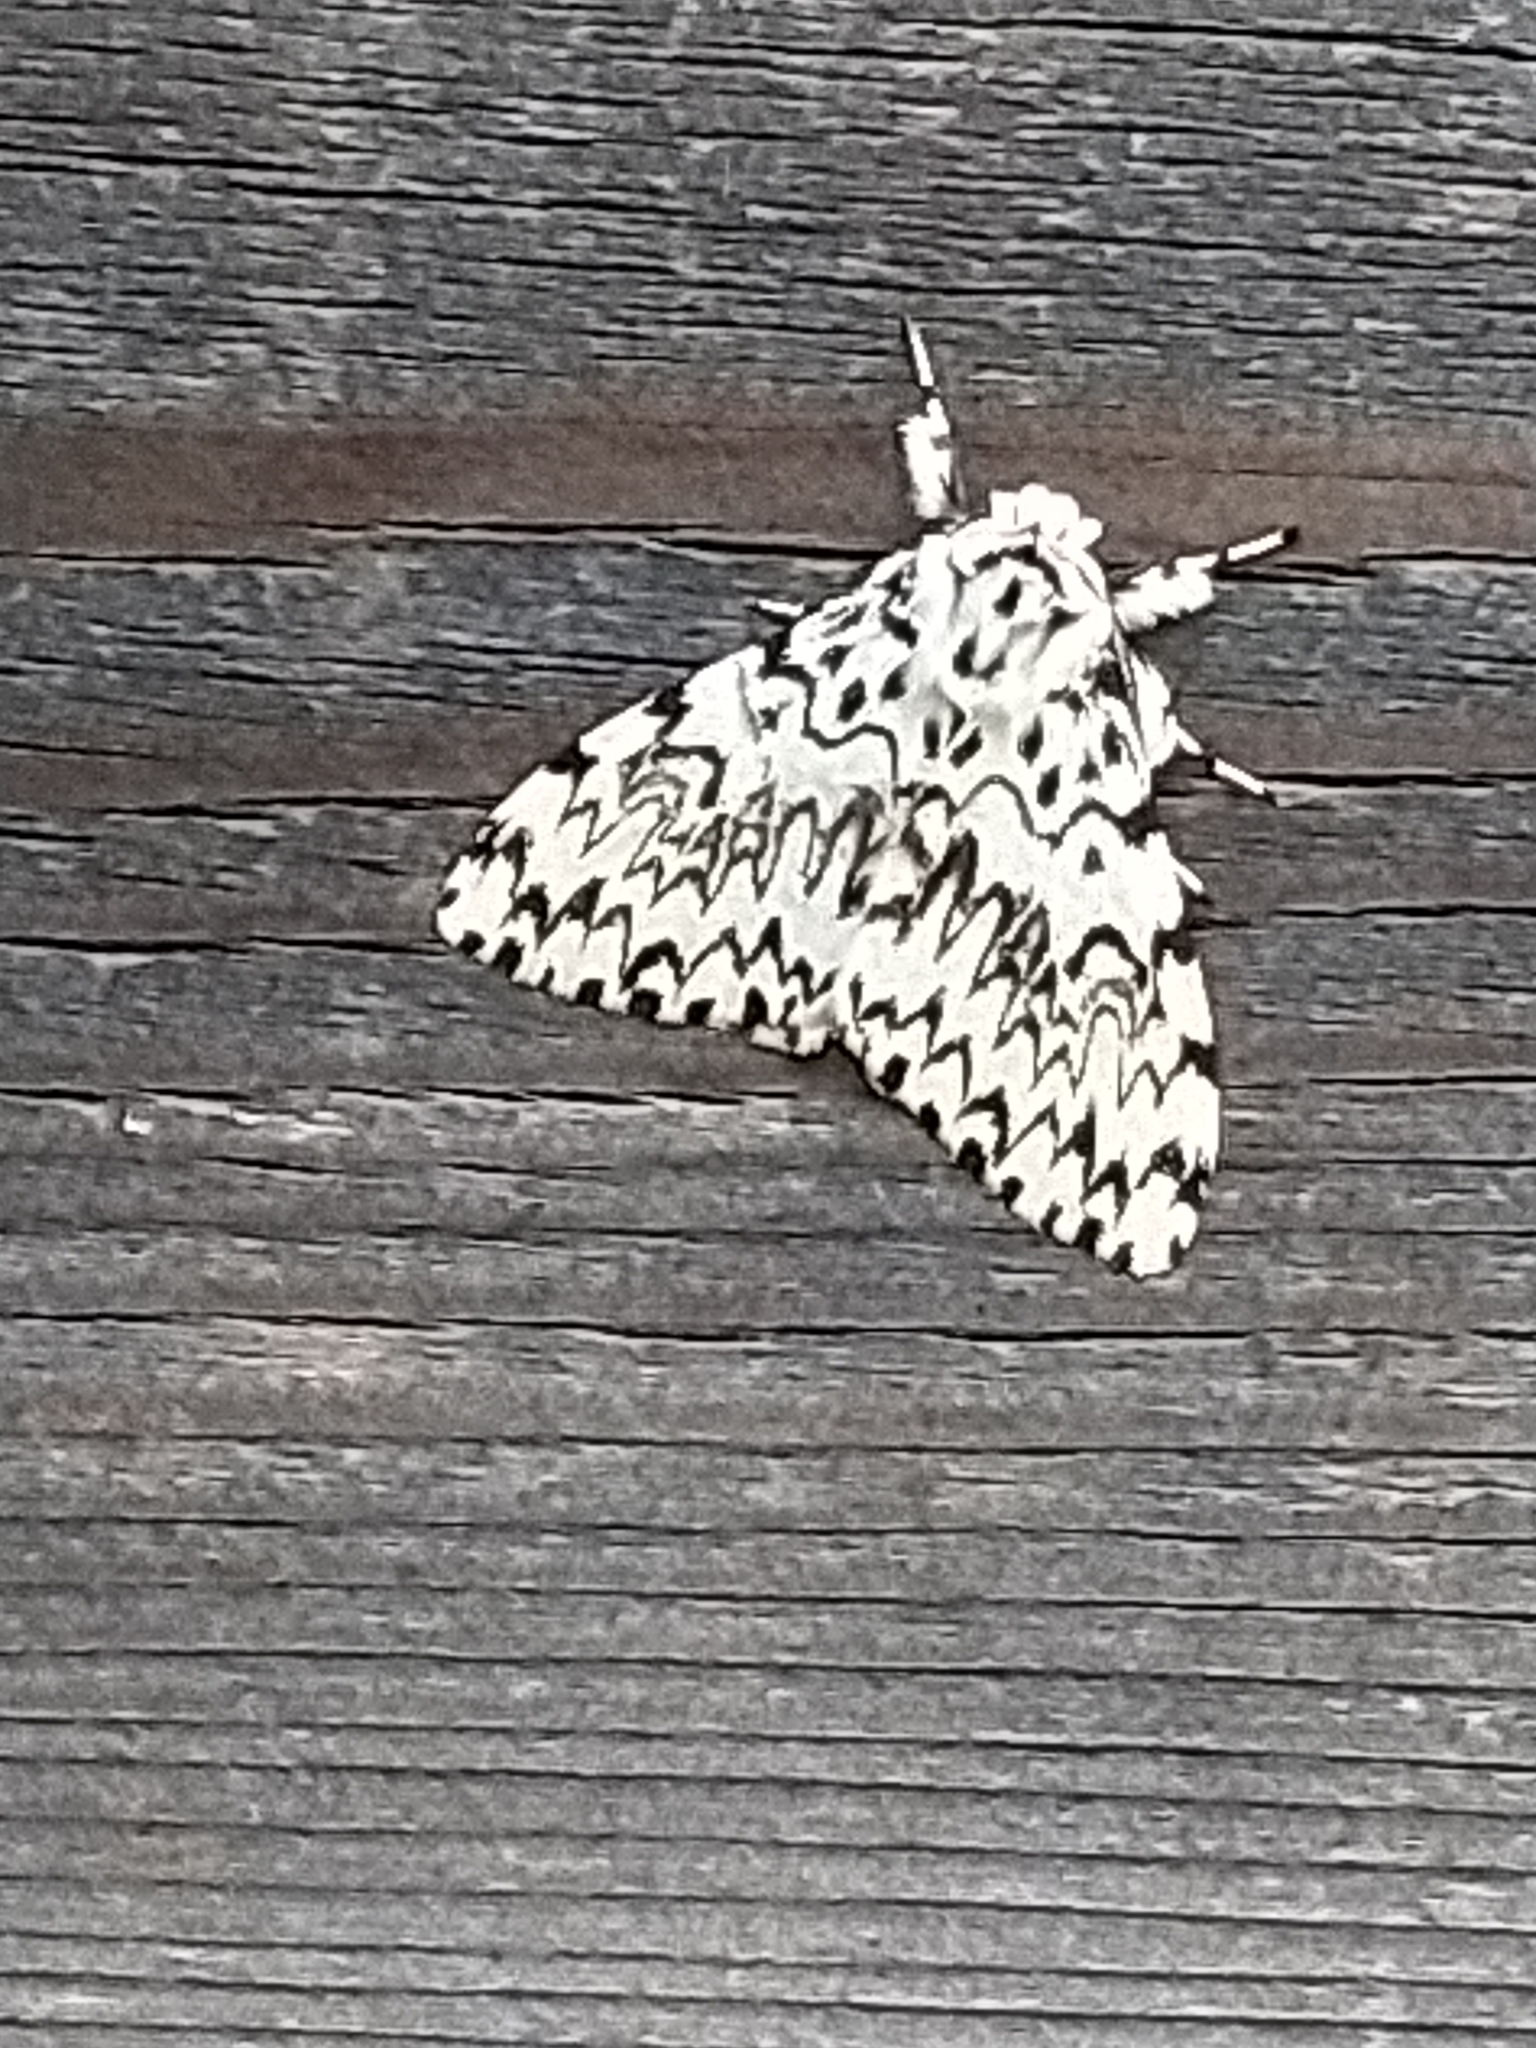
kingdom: Animalia
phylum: Arthropoda
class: Insecta
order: Lepidoptera
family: Erebidae
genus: Lymantria
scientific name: Lymantria monacha
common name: Black arches
